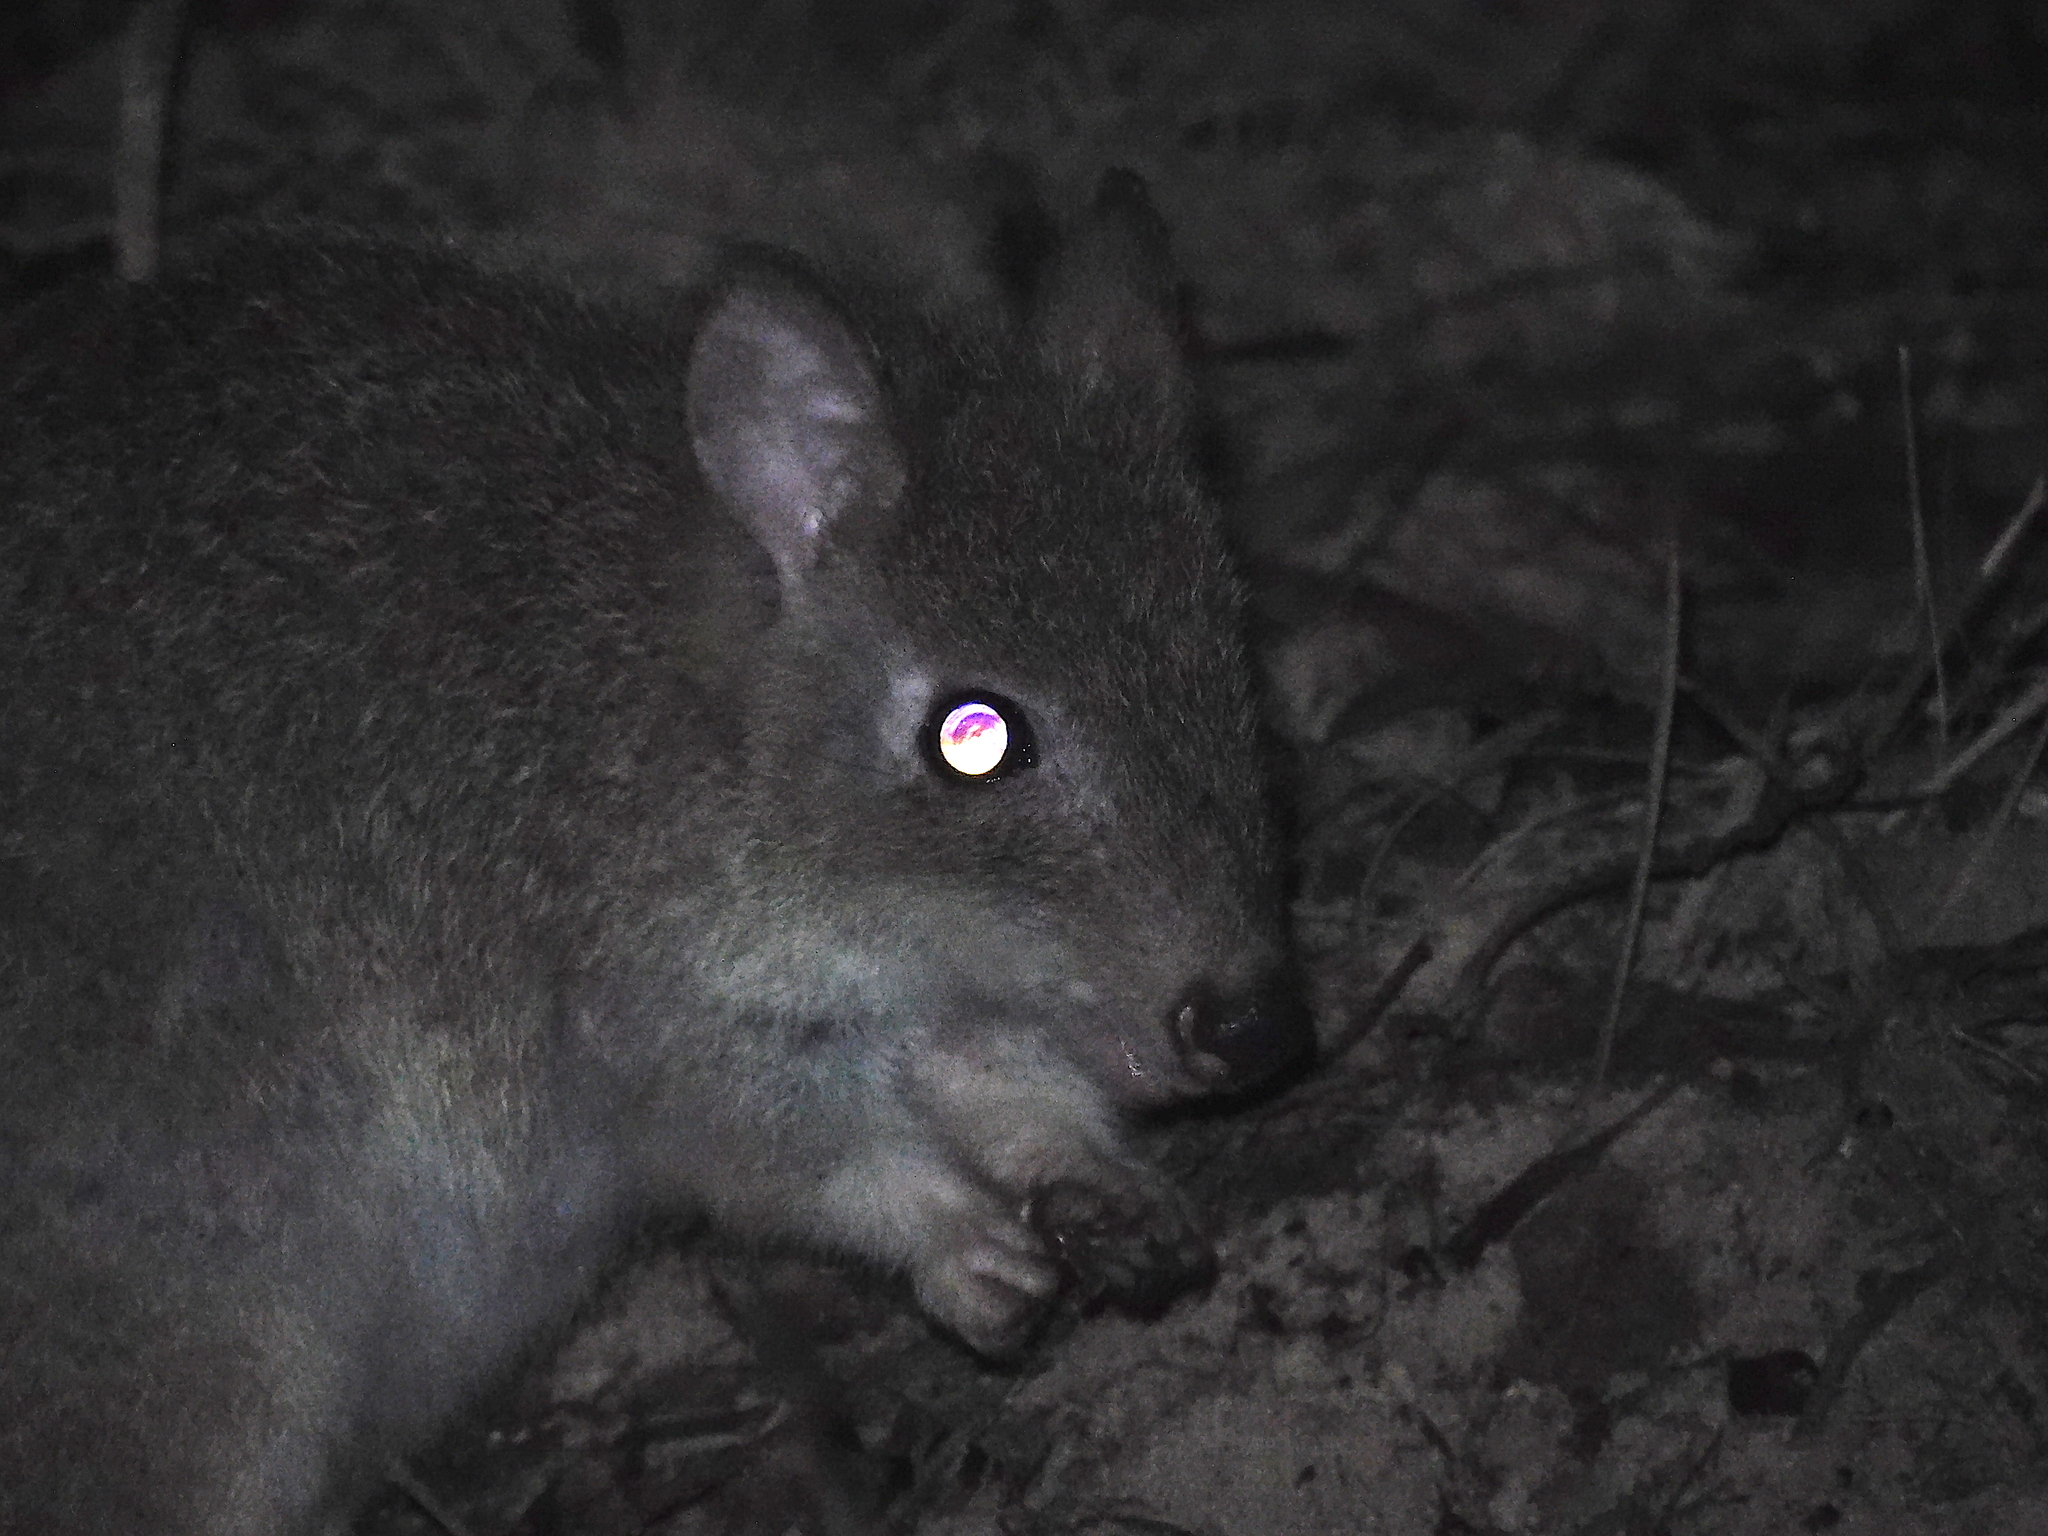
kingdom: Animalia
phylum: Chordata
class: Mammalia
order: Diprotodontia
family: Potoroidae
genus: Bettongia
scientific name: Bettongia gaimardi
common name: Eastern bettong
